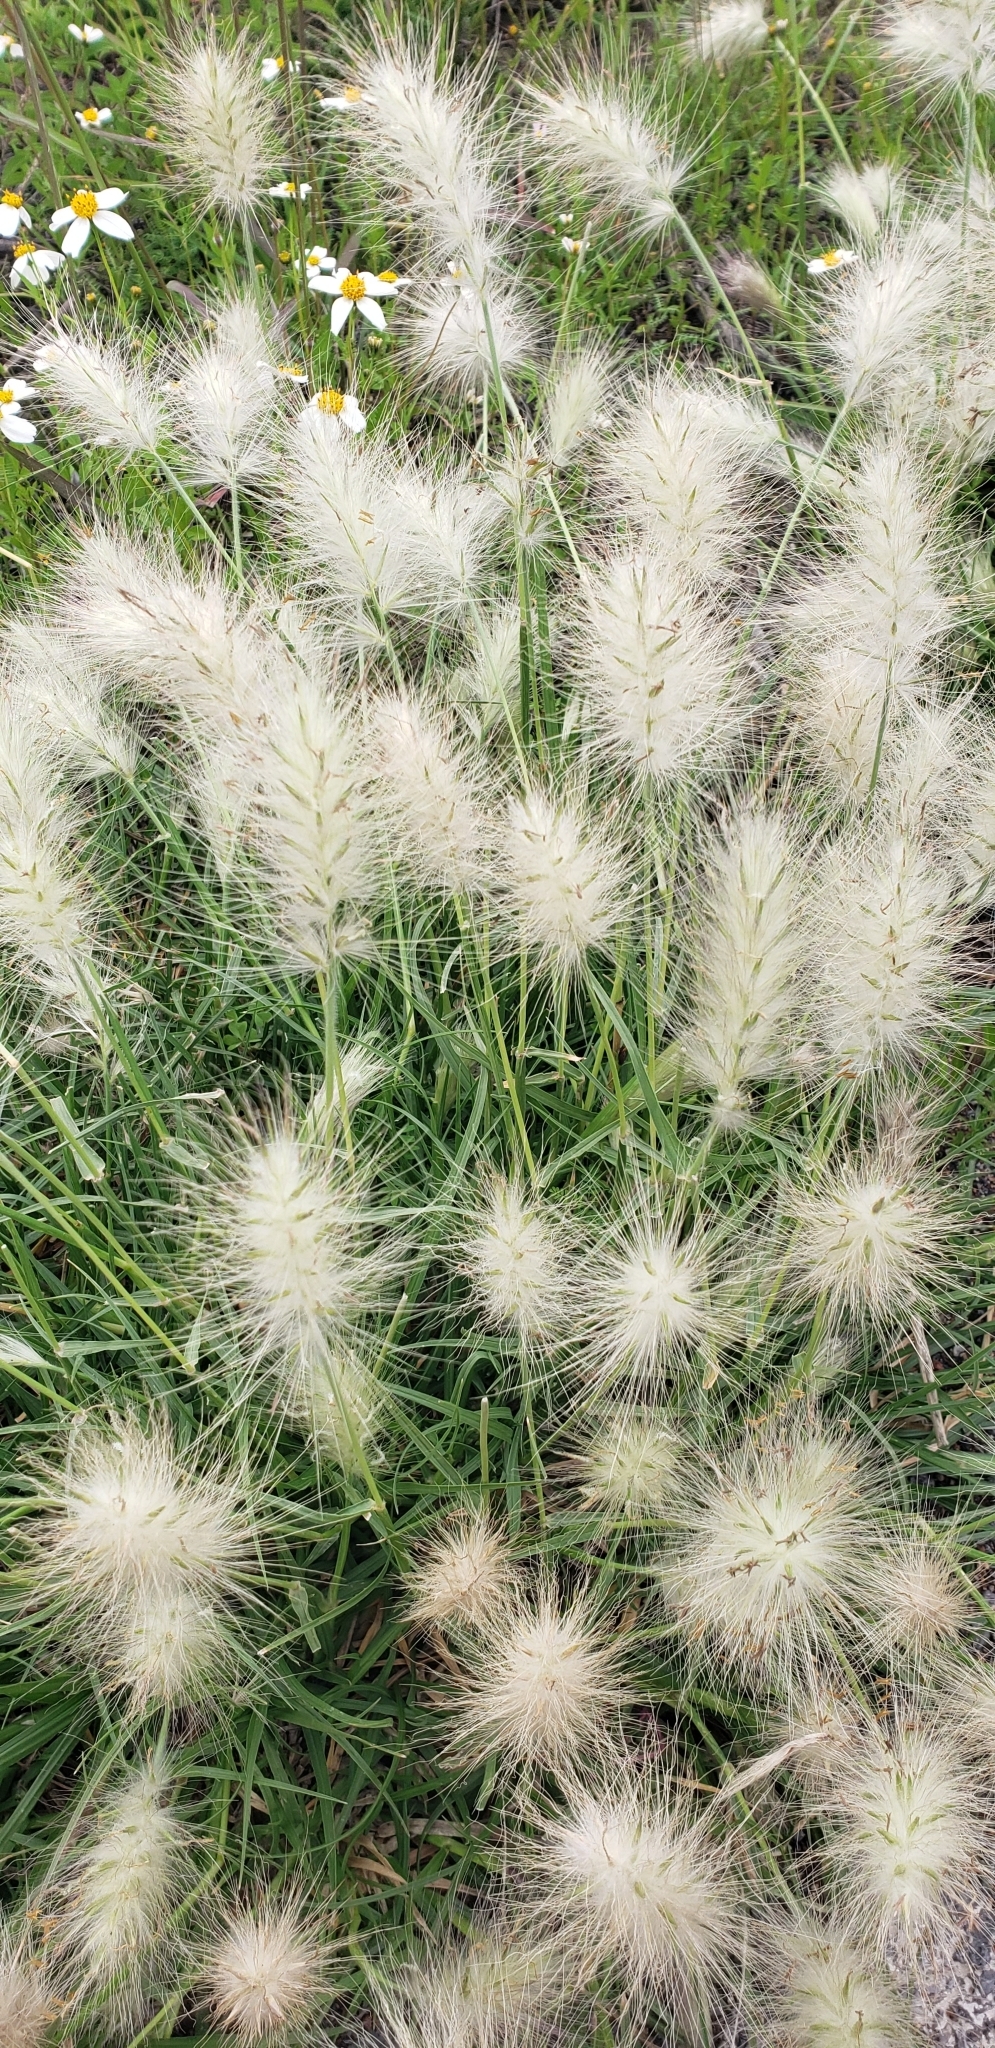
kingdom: Plantae
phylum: Tracheophyta
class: Liliopsida
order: Poales
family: Poaceae
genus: Cenchrus
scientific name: Cenchrus longisetus
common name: Feathertop
